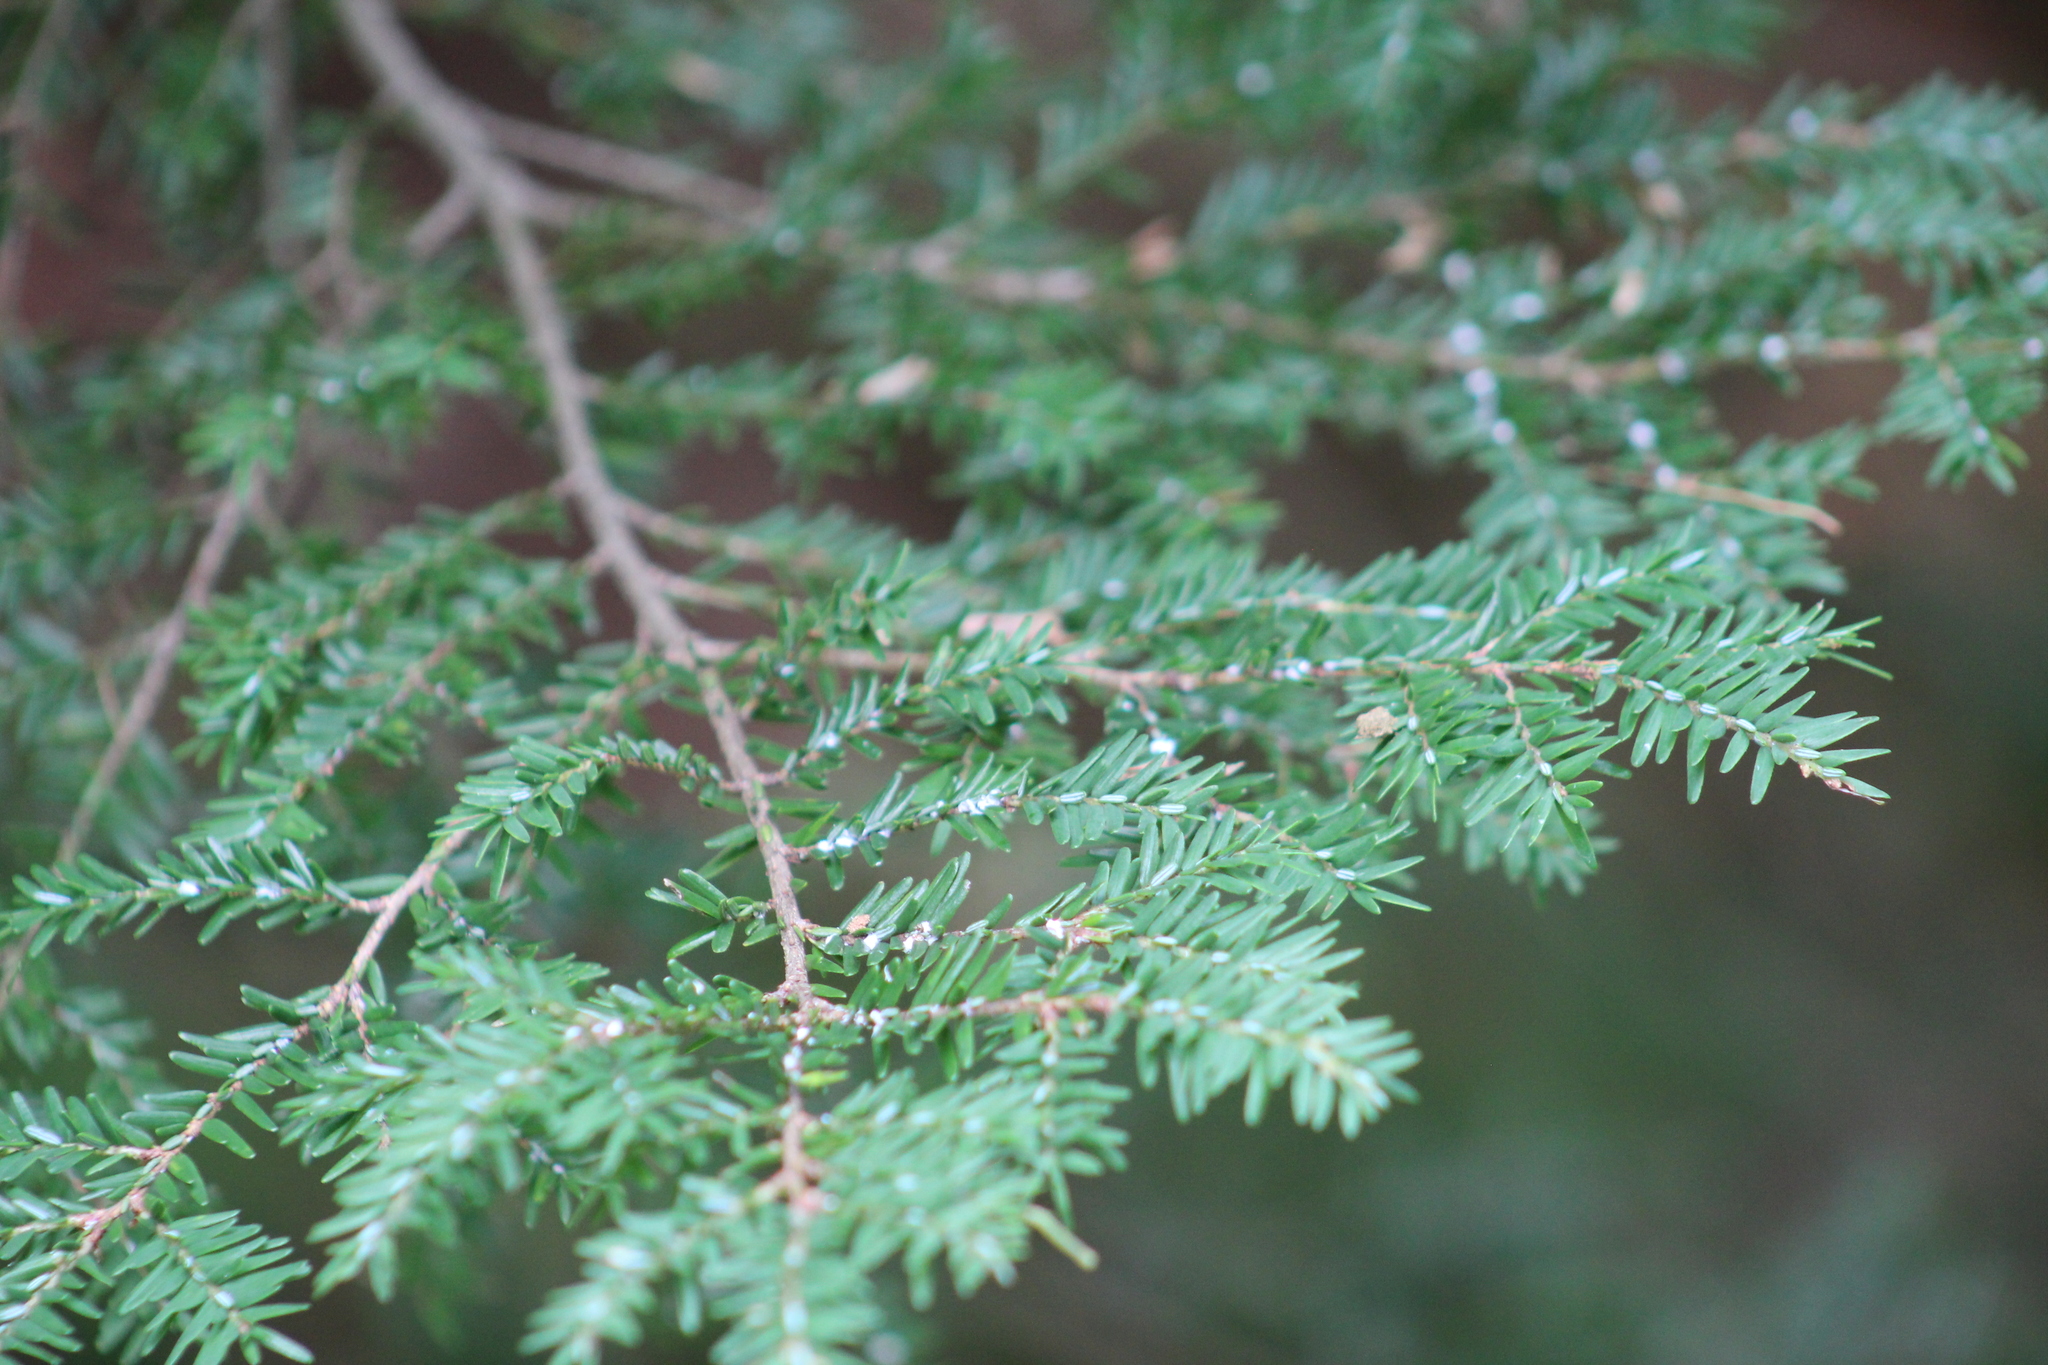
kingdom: Animalia
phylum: Arthropoda
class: Insecta
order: Hemiptera
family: Adelgidae
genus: Adelges
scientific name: Adelges tsugae
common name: Hemlock woolly adelgid
